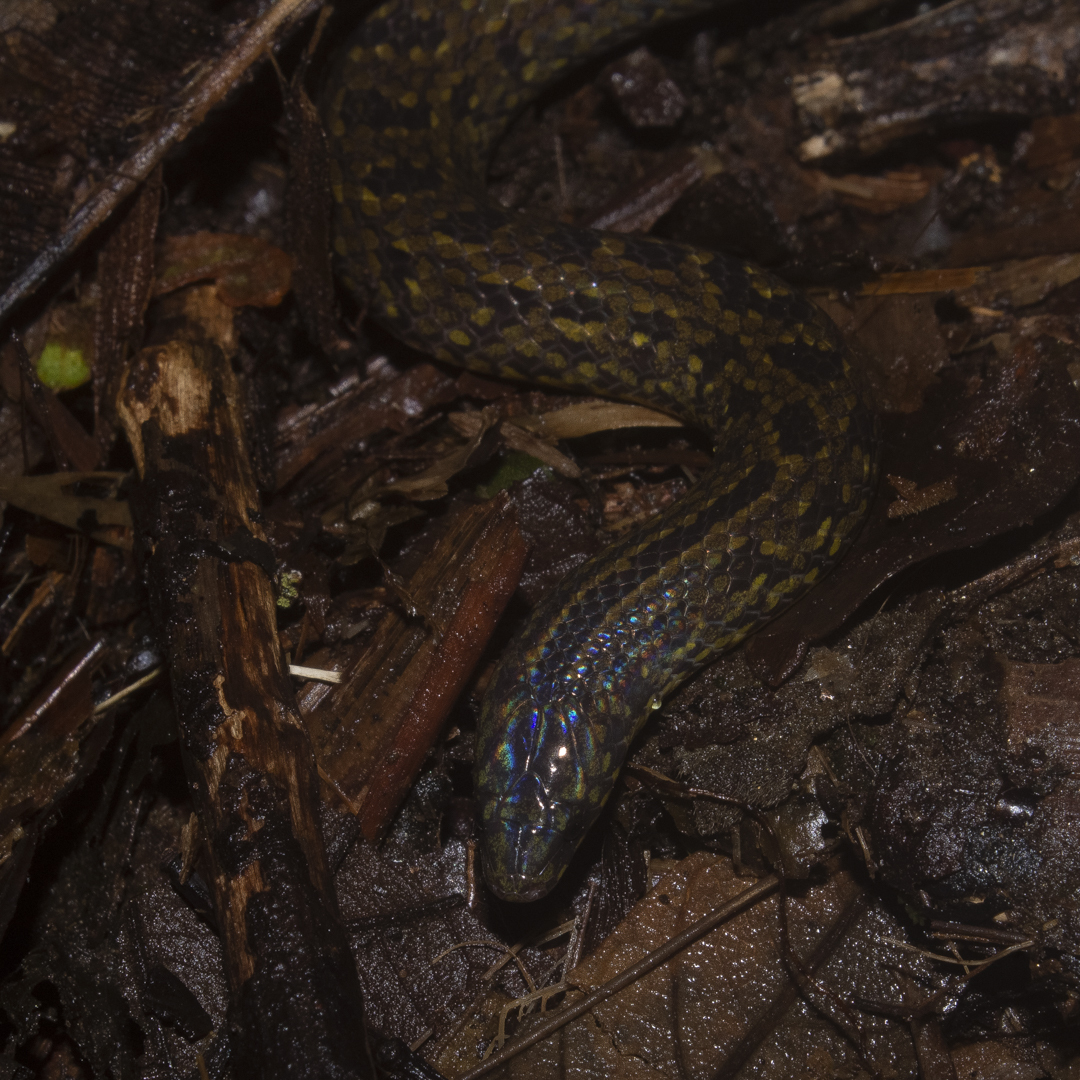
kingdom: Animalia
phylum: Chordata
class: Squamata
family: Colubridae
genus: Atractus
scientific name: Atractus sanctaemartae
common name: St. marta's ground snake
